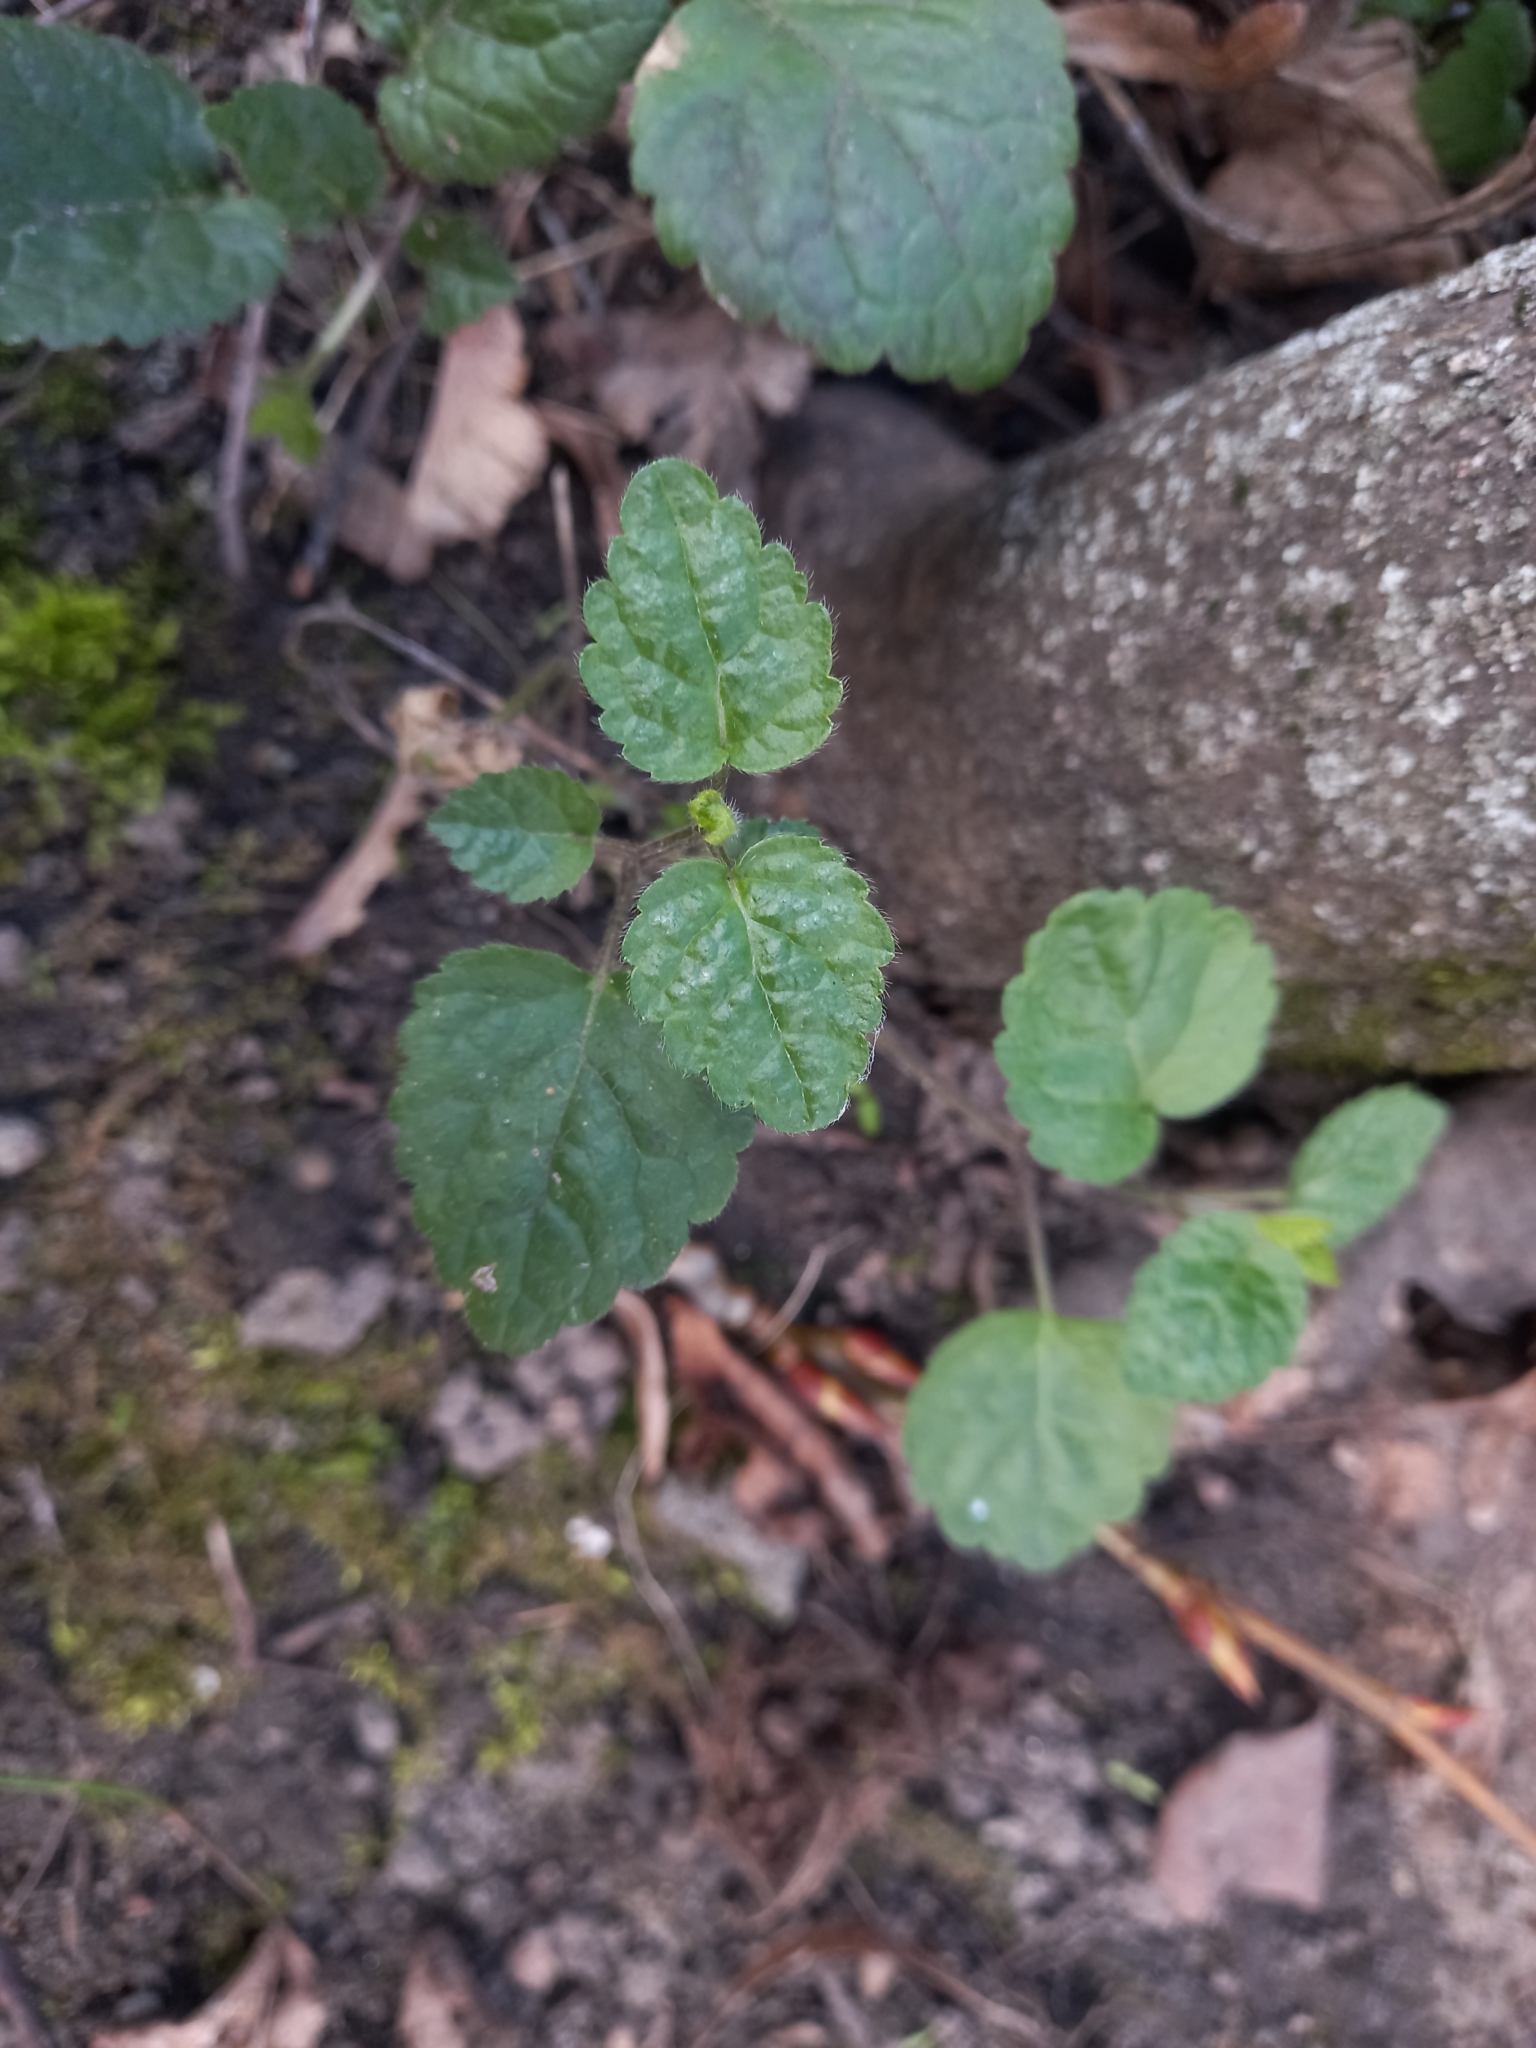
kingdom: Plantae
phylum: Tracheophyta
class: Magnoliopsida
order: Lamiales
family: Lamiaceae
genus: Lamium
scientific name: Lamium galeobdolon
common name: Yellow archangel
